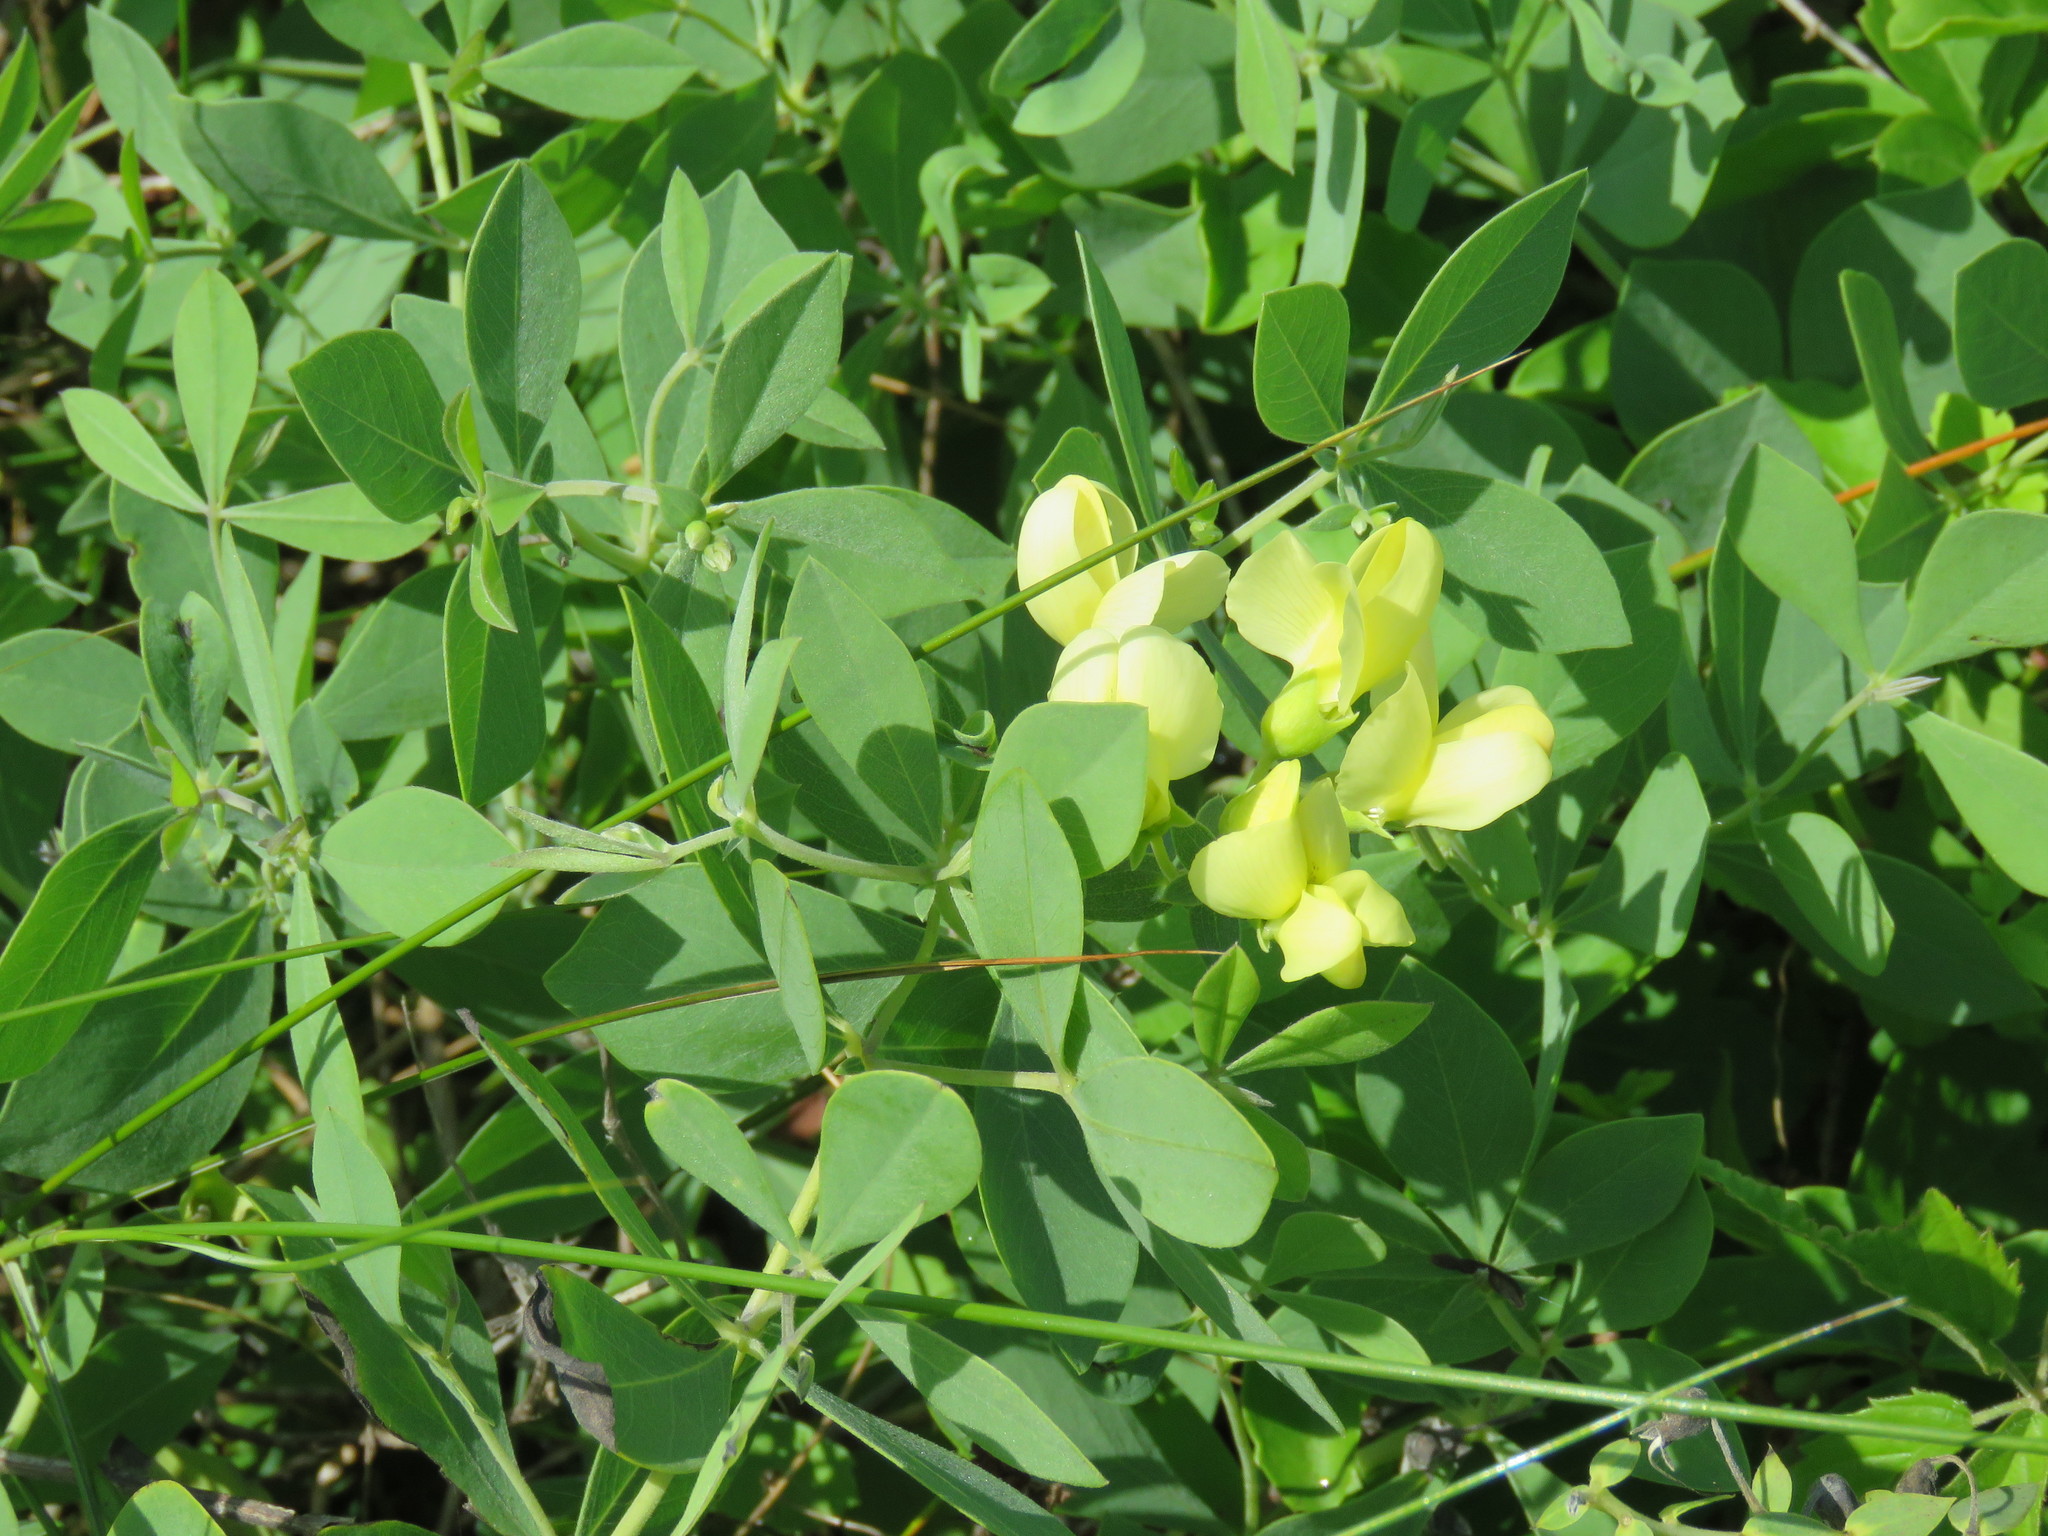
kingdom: Plantae
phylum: Tracheophyta
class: Magnoliopsida
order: Fabales
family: Fabaceae
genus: Baptisia
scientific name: Baptisia bracteata
